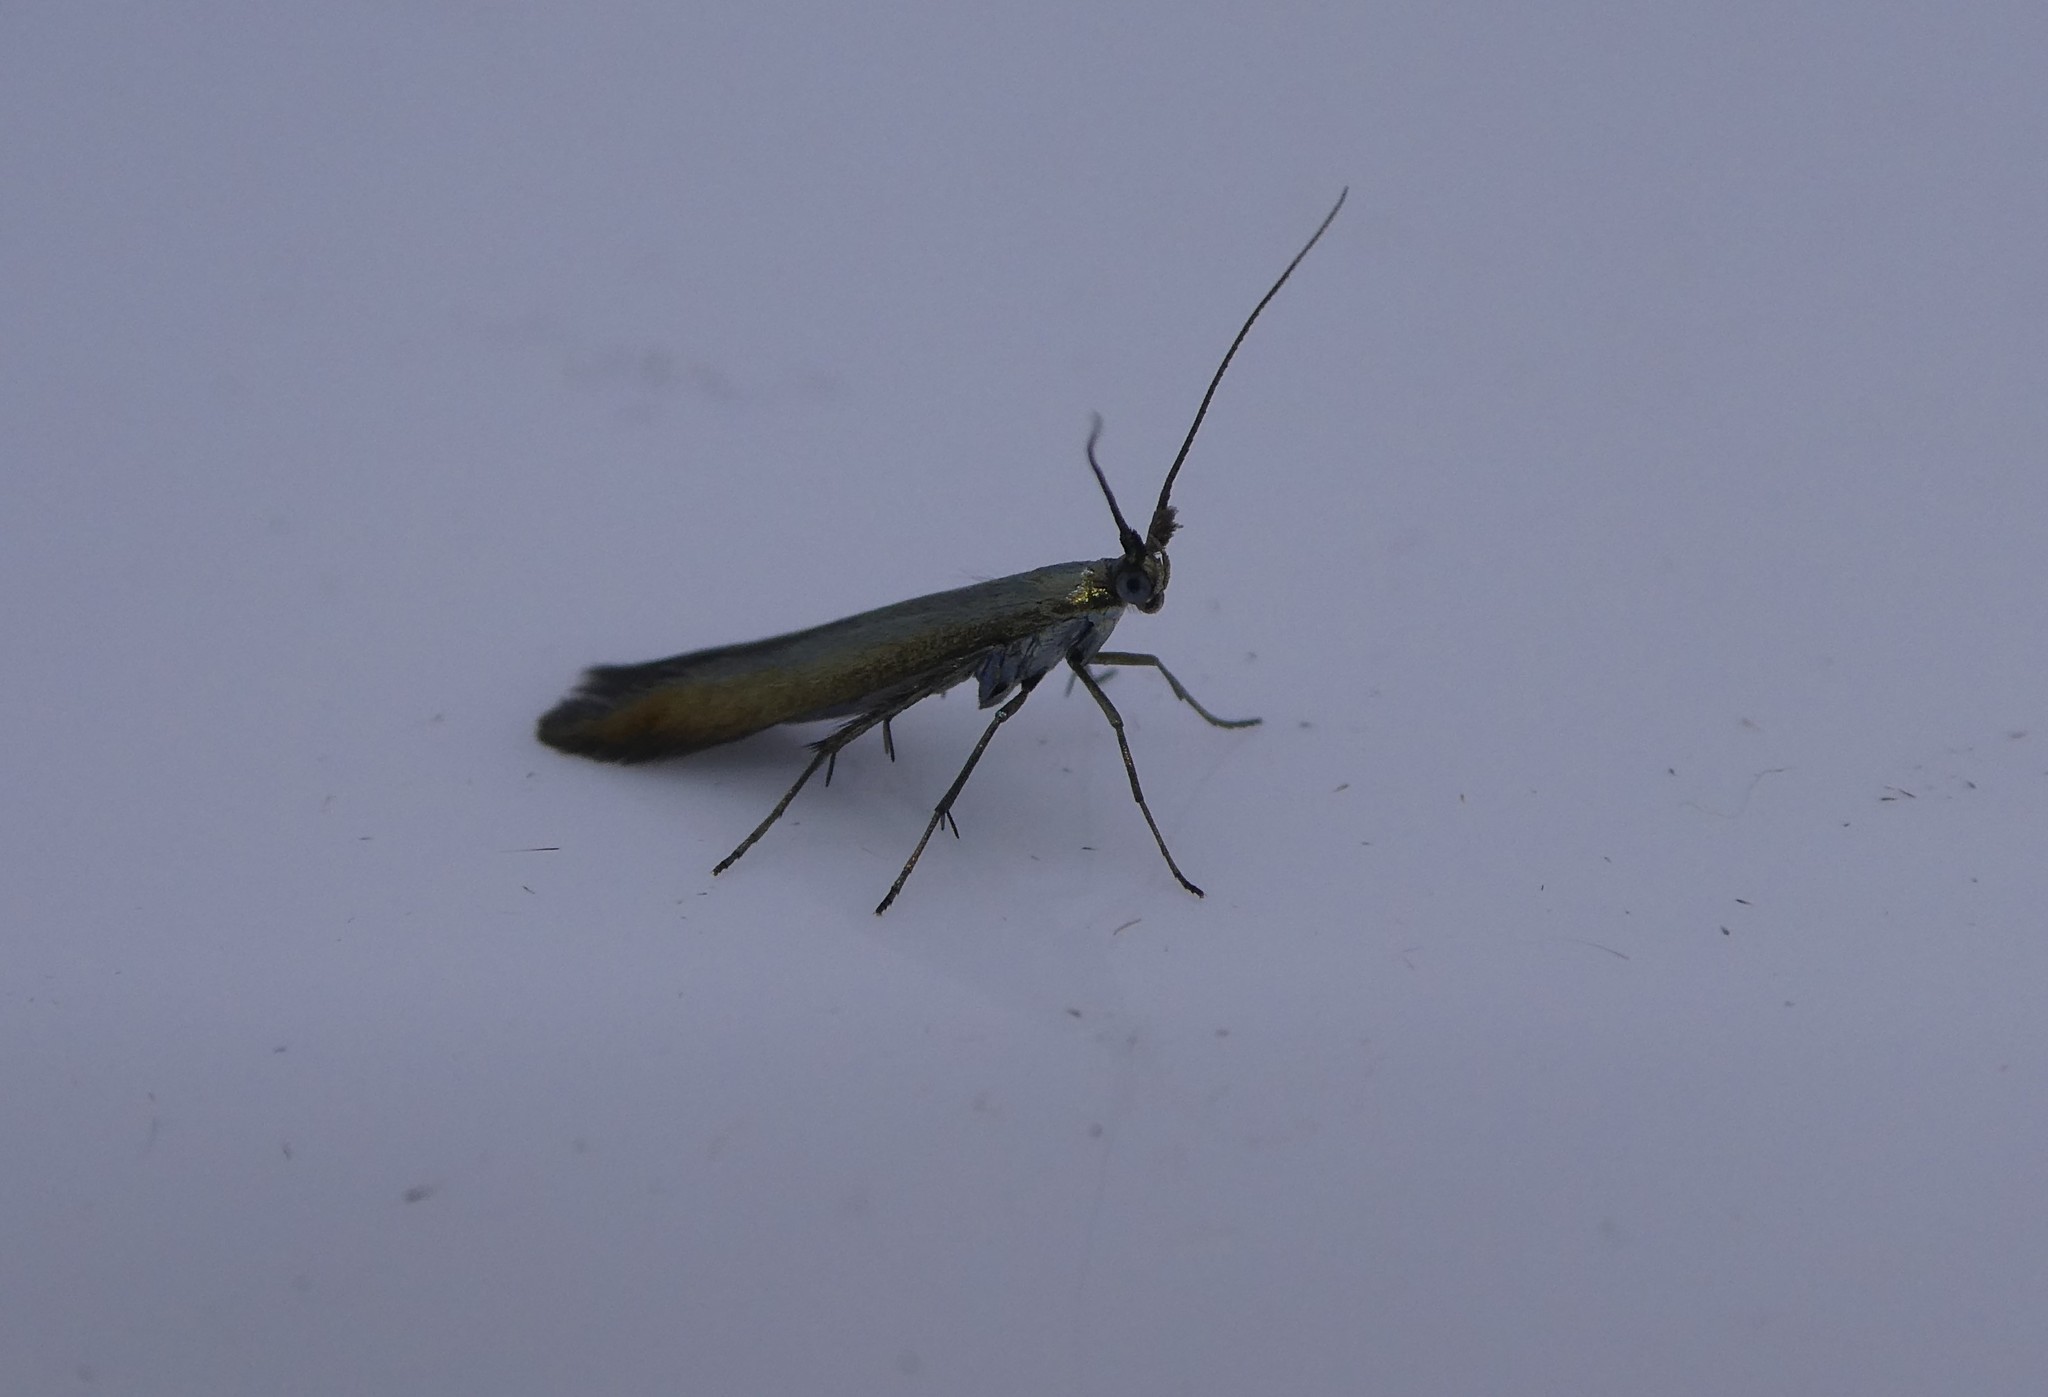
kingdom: Animalia
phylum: Arthropoda
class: Insecta
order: Lepidoptera
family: Coleophoridae
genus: Coleophora
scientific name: Coleophora trifolii
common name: Large clover case-bearer
